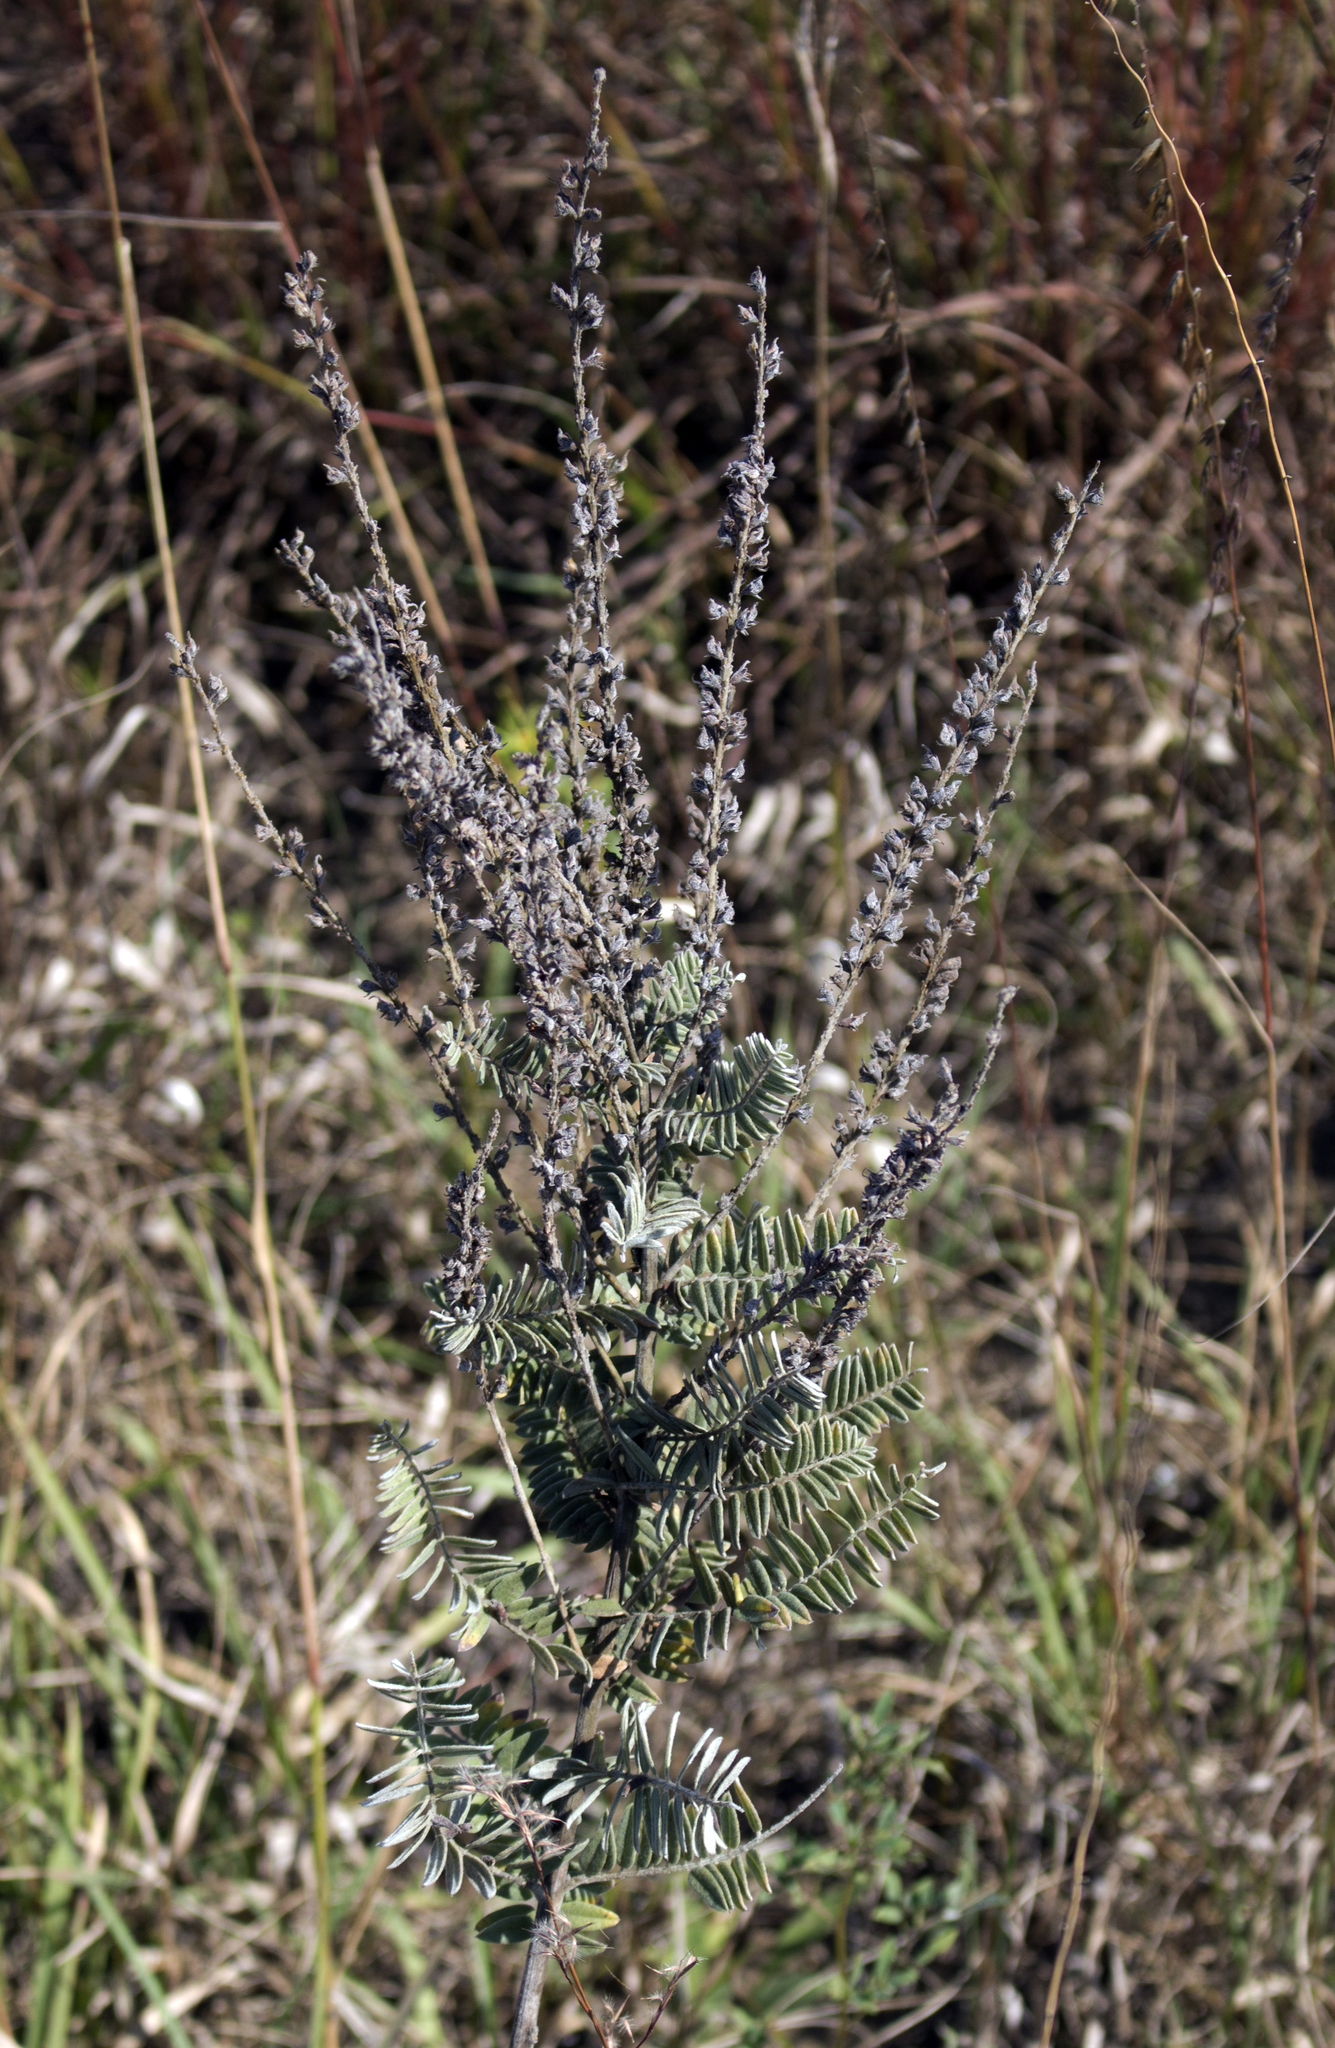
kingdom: Plantae
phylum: Tracheophyta
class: Magnoliopsida
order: Fabales
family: Fabaceae
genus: Amorpha
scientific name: Amorpha canescens
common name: Leadplant
